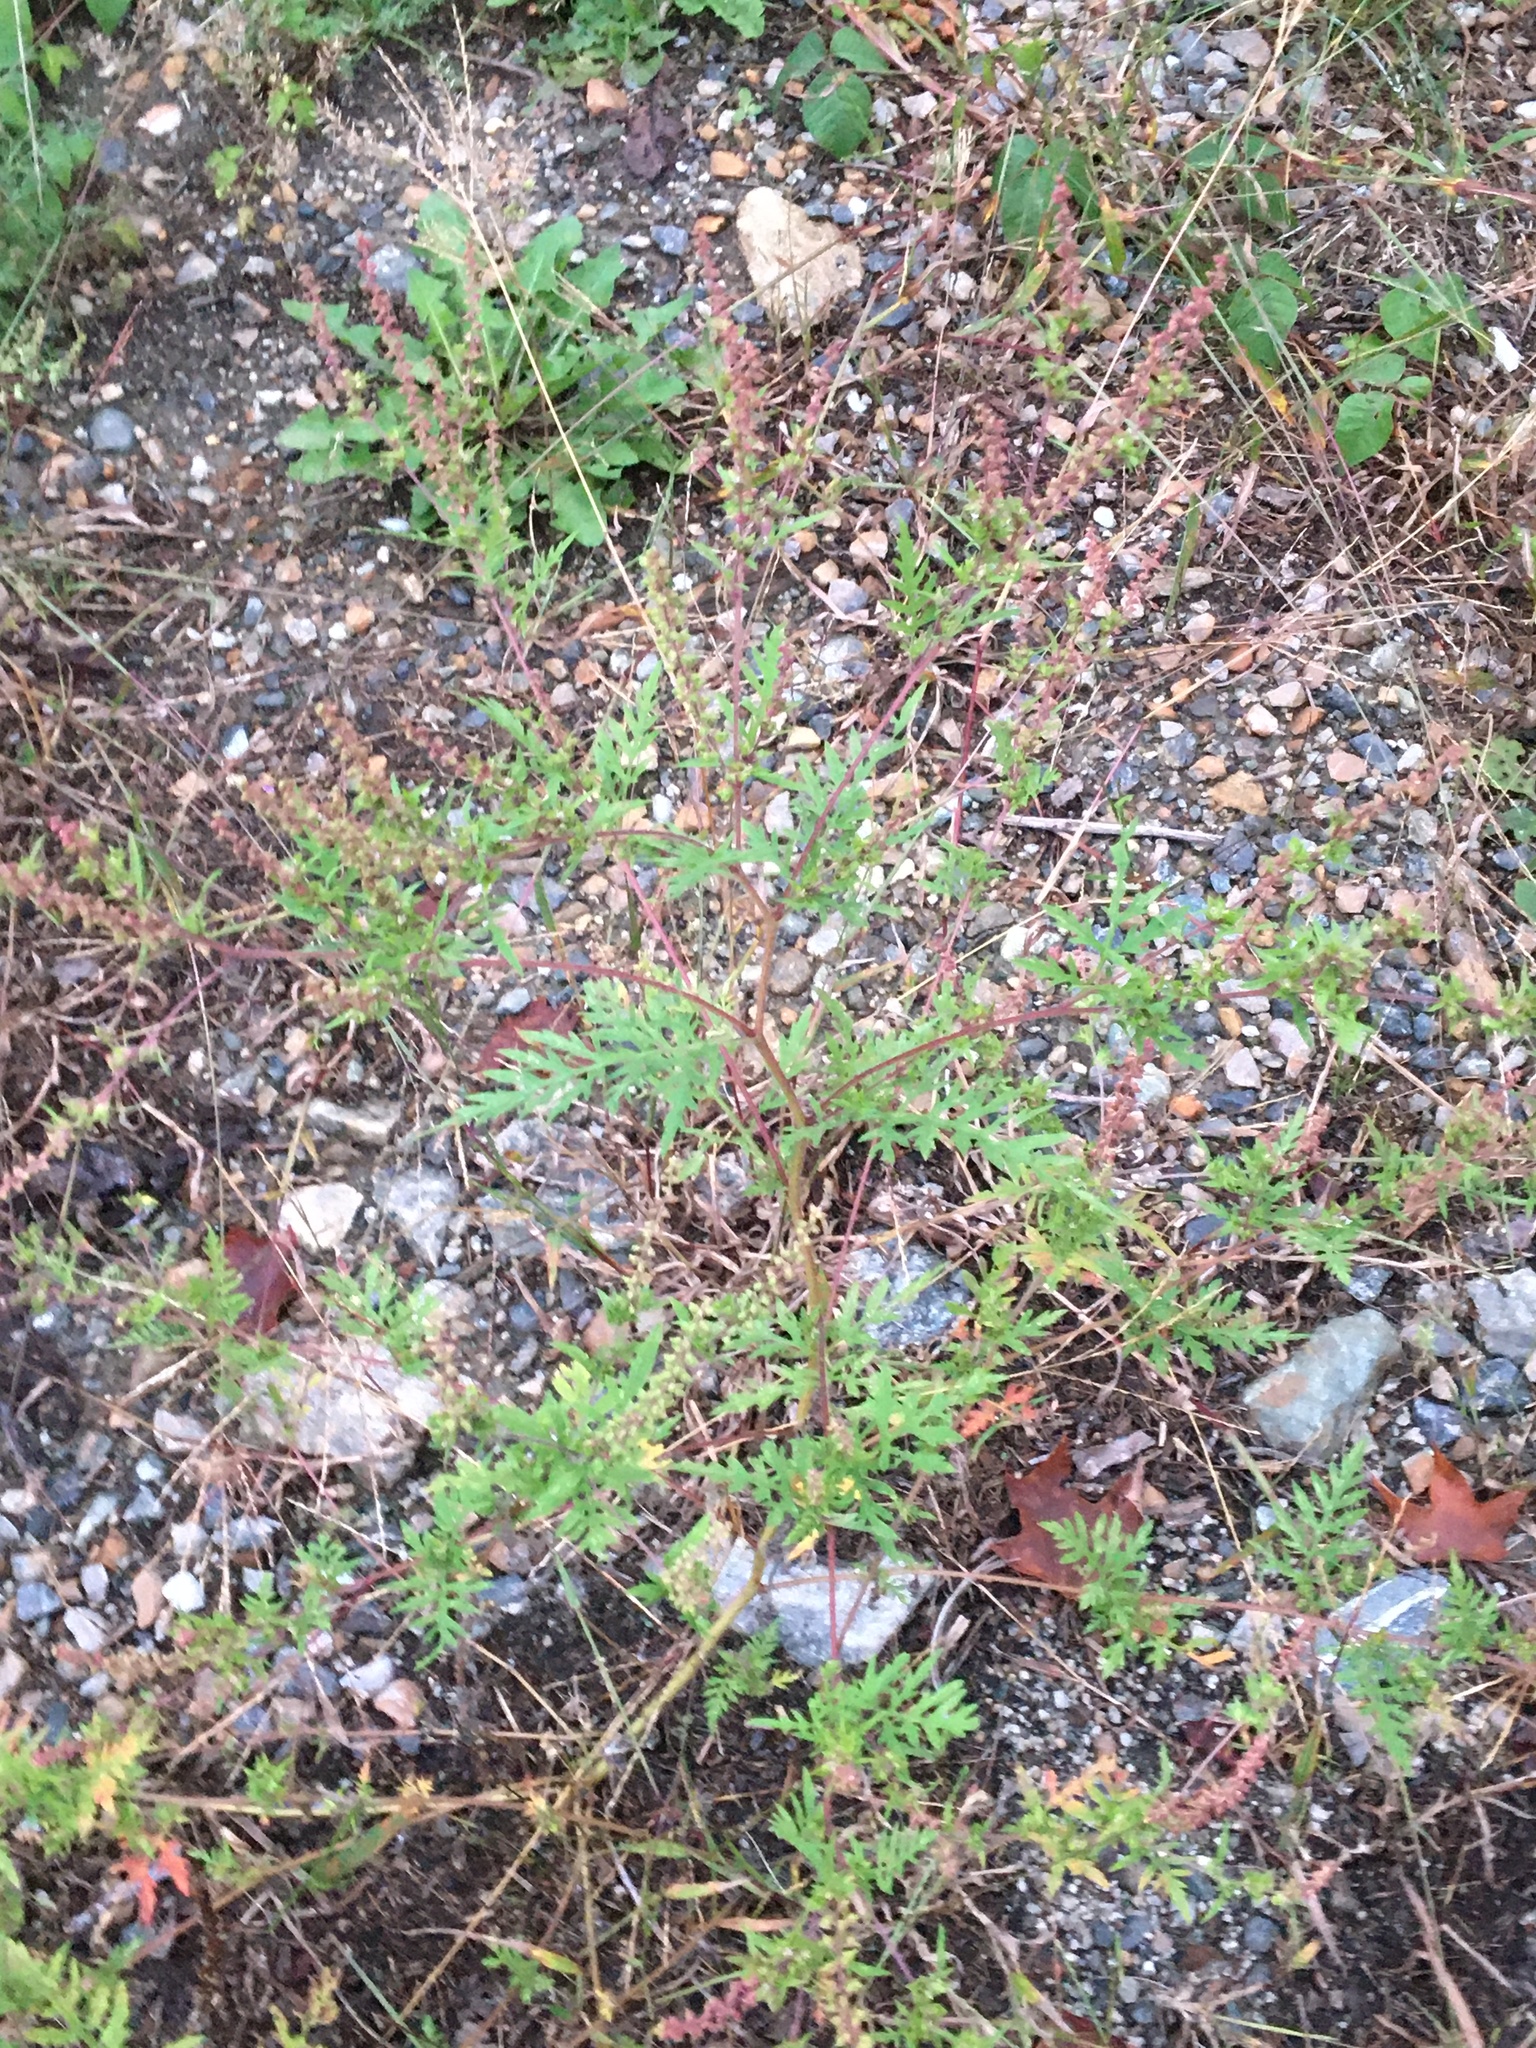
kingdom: Plantae
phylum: Tracheophyta
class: Magnoliopsida
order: Asterales
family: Asteraceae
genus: Ambrosia
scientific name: Ambrosia artemisiifolia
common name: Annual ragweed
